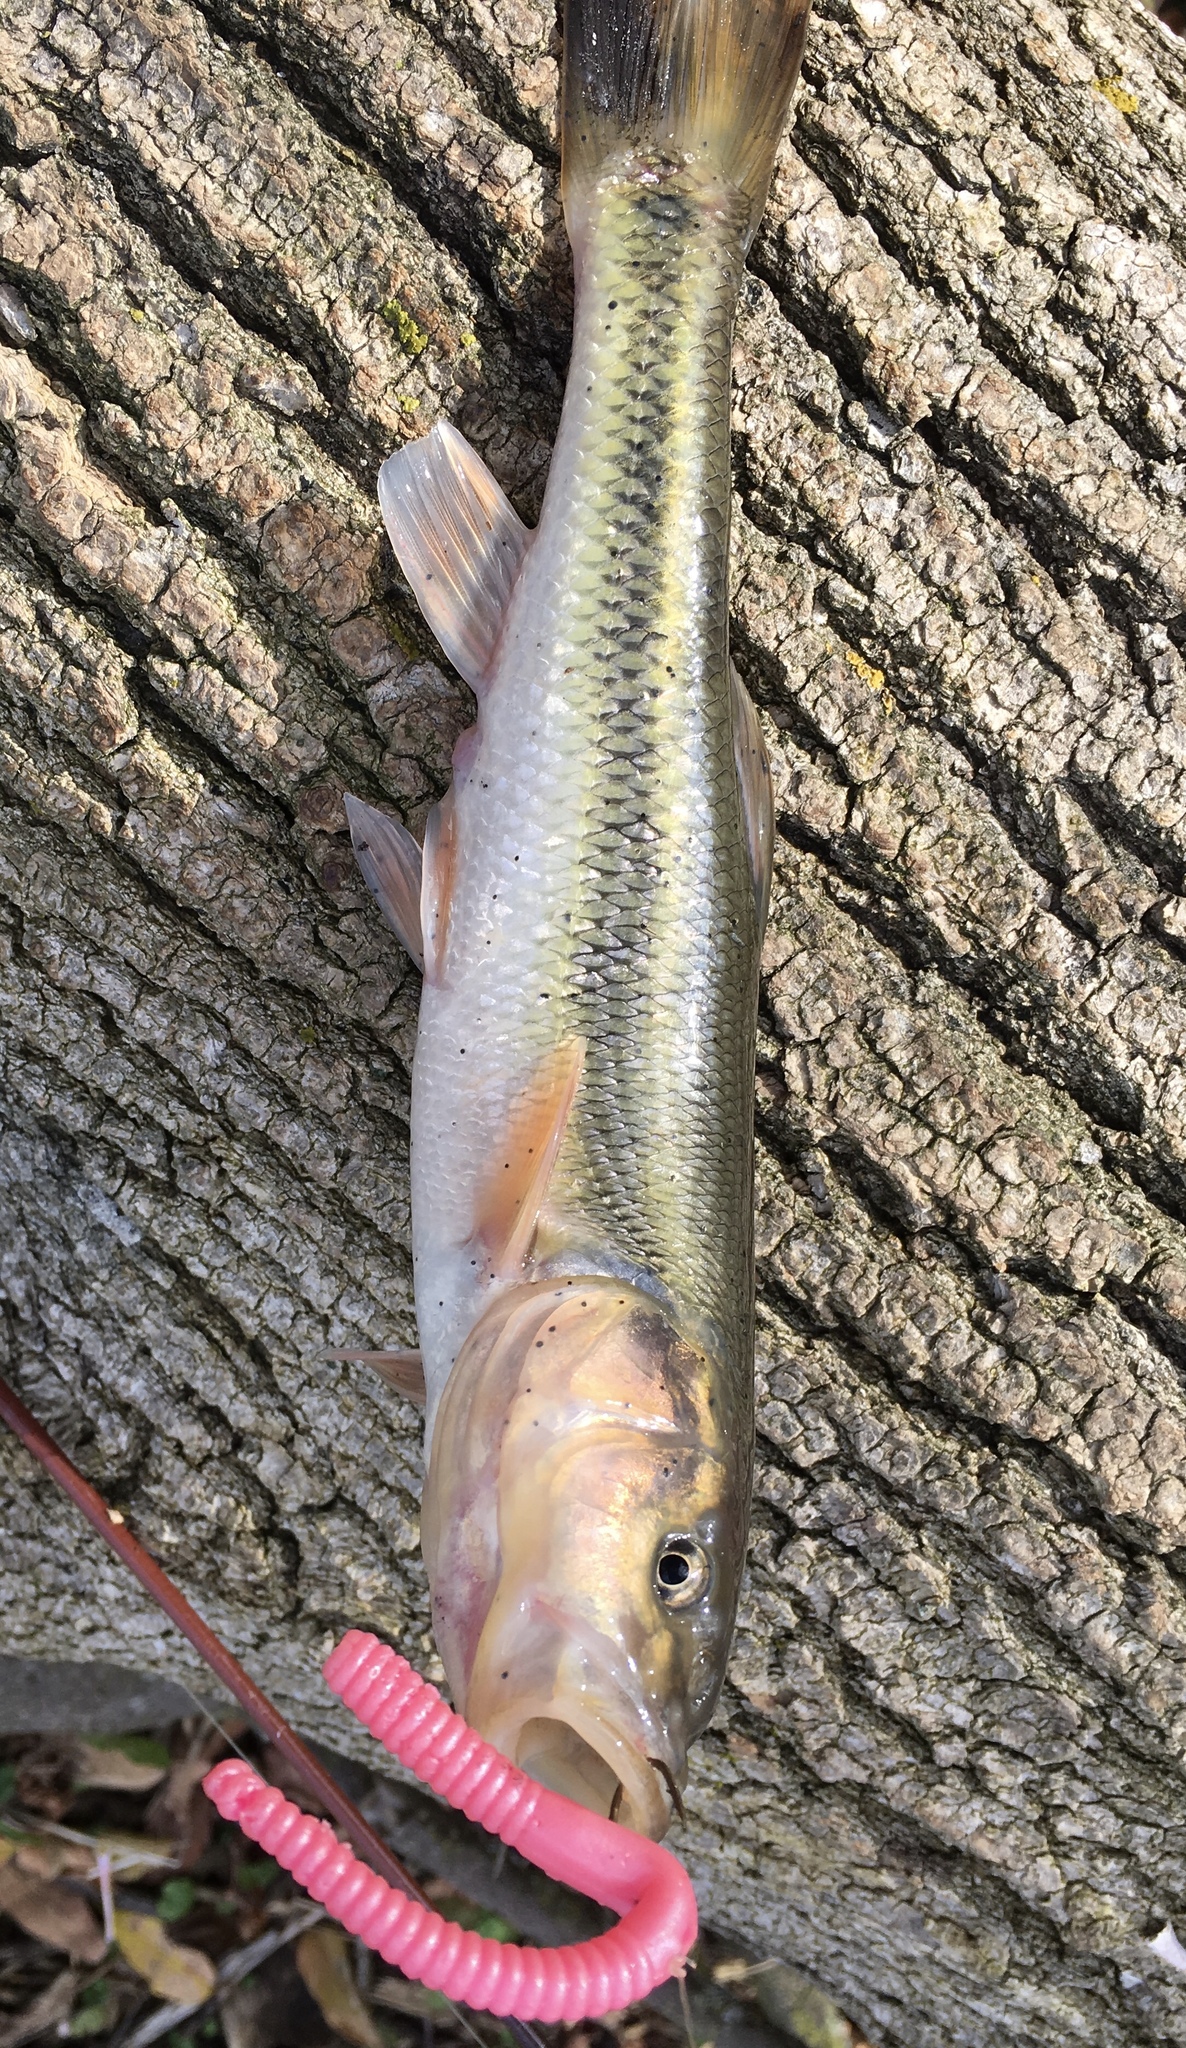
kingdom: Animalia
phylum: Chordata
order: Cypriniformes
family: Cyprinidae
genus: Semotilus
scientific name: Semotilus atromaculatus
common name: Creek chub
